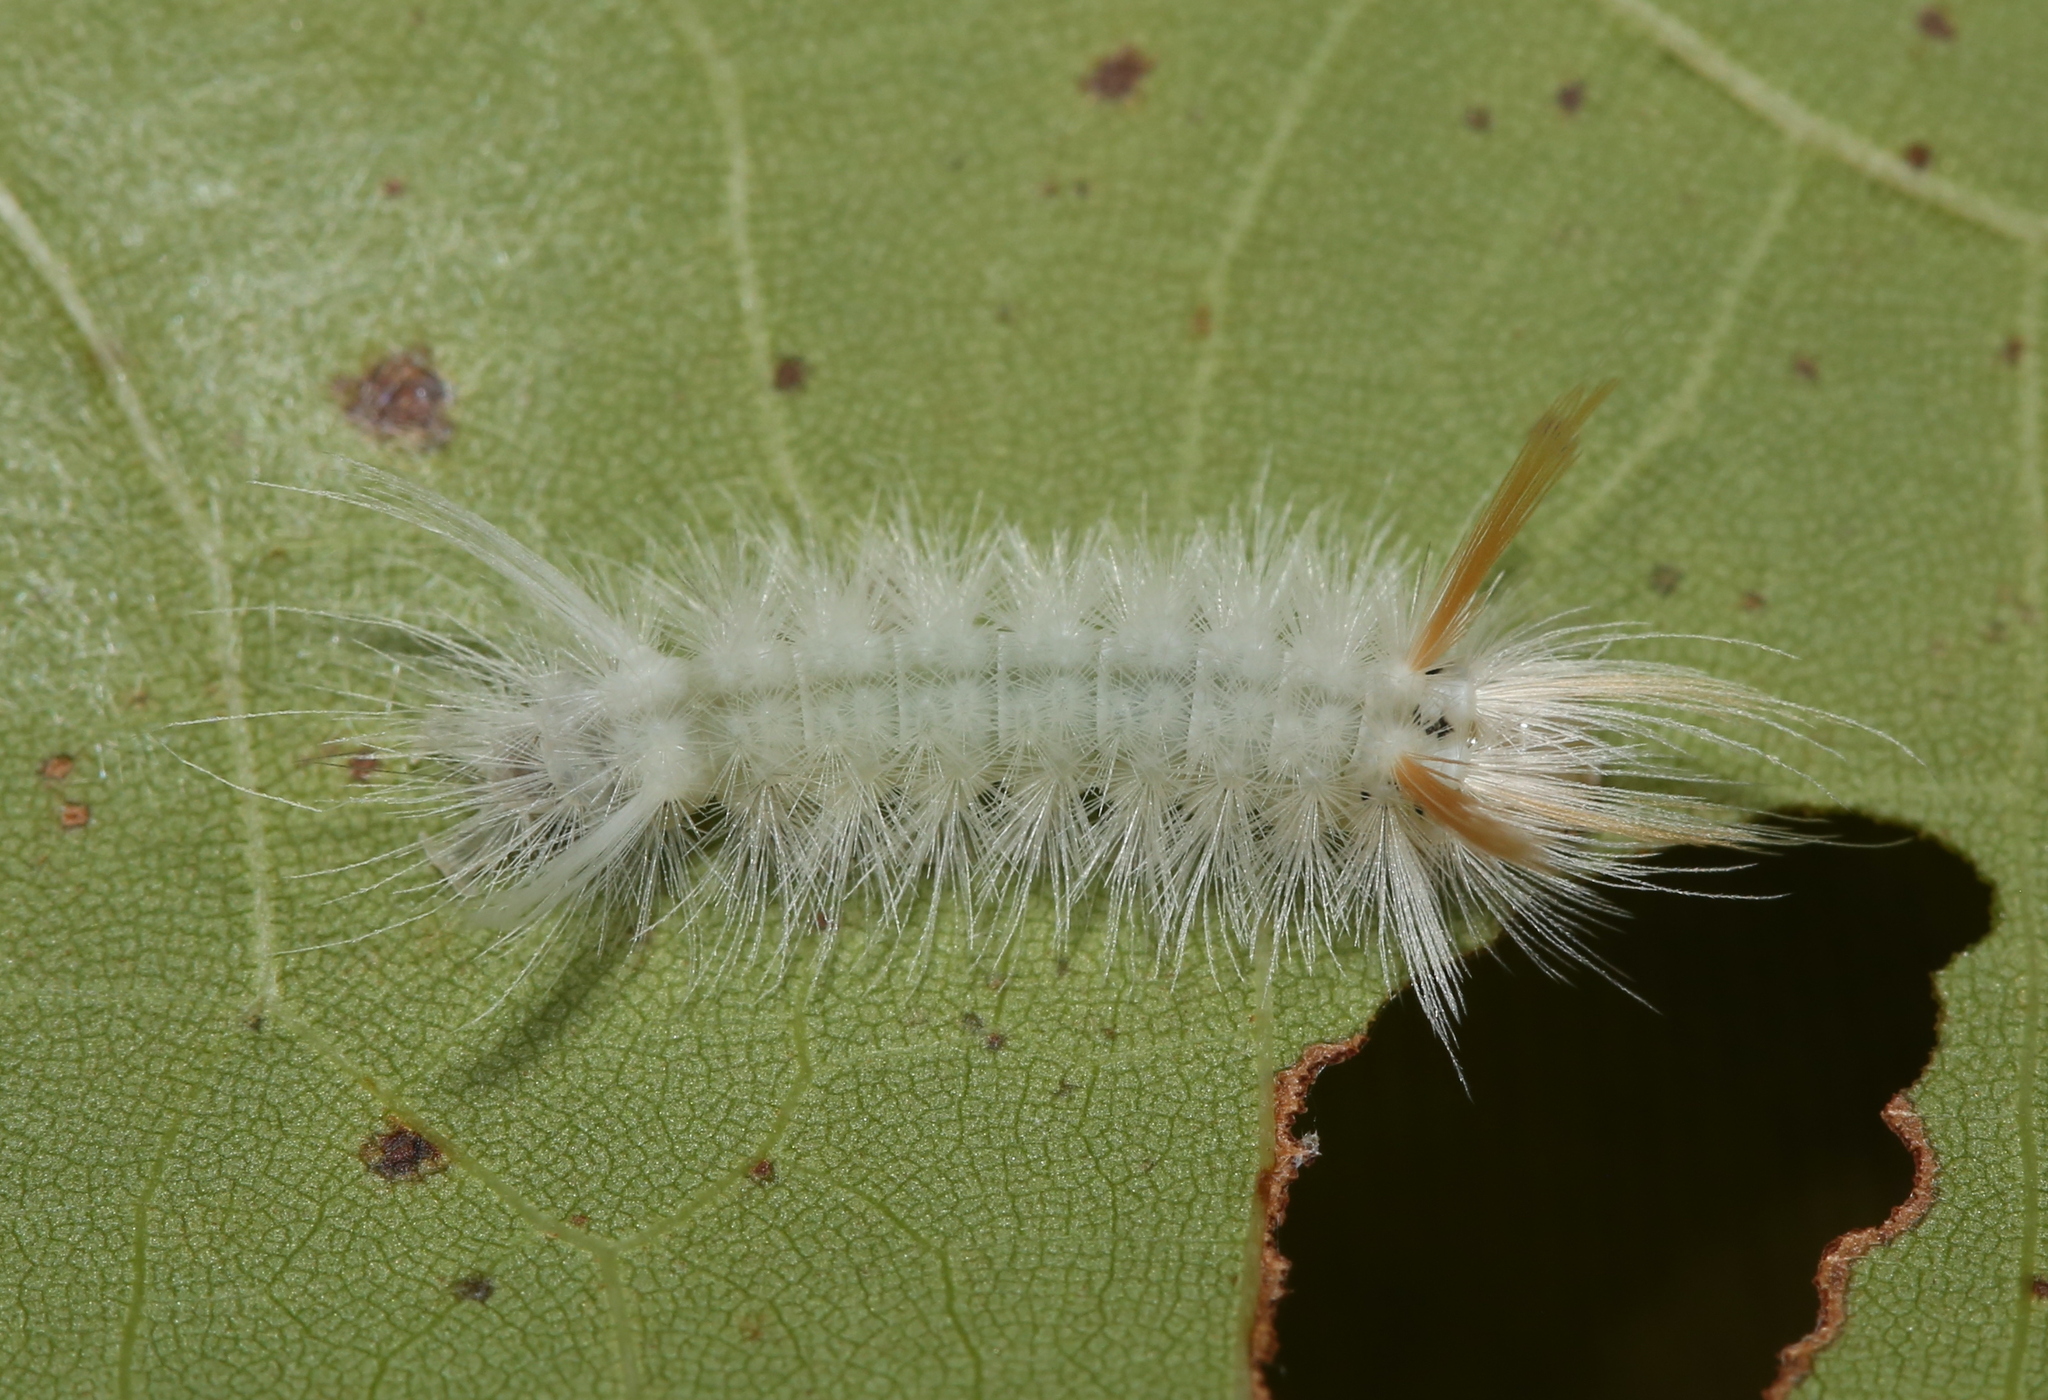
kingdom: Animalia
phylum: Arthropoda
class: Insecta
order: Lepidoptera
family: Erebidae
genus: Halysidota
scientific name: Halysidota harrisii
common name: Sycamore tussock moth
